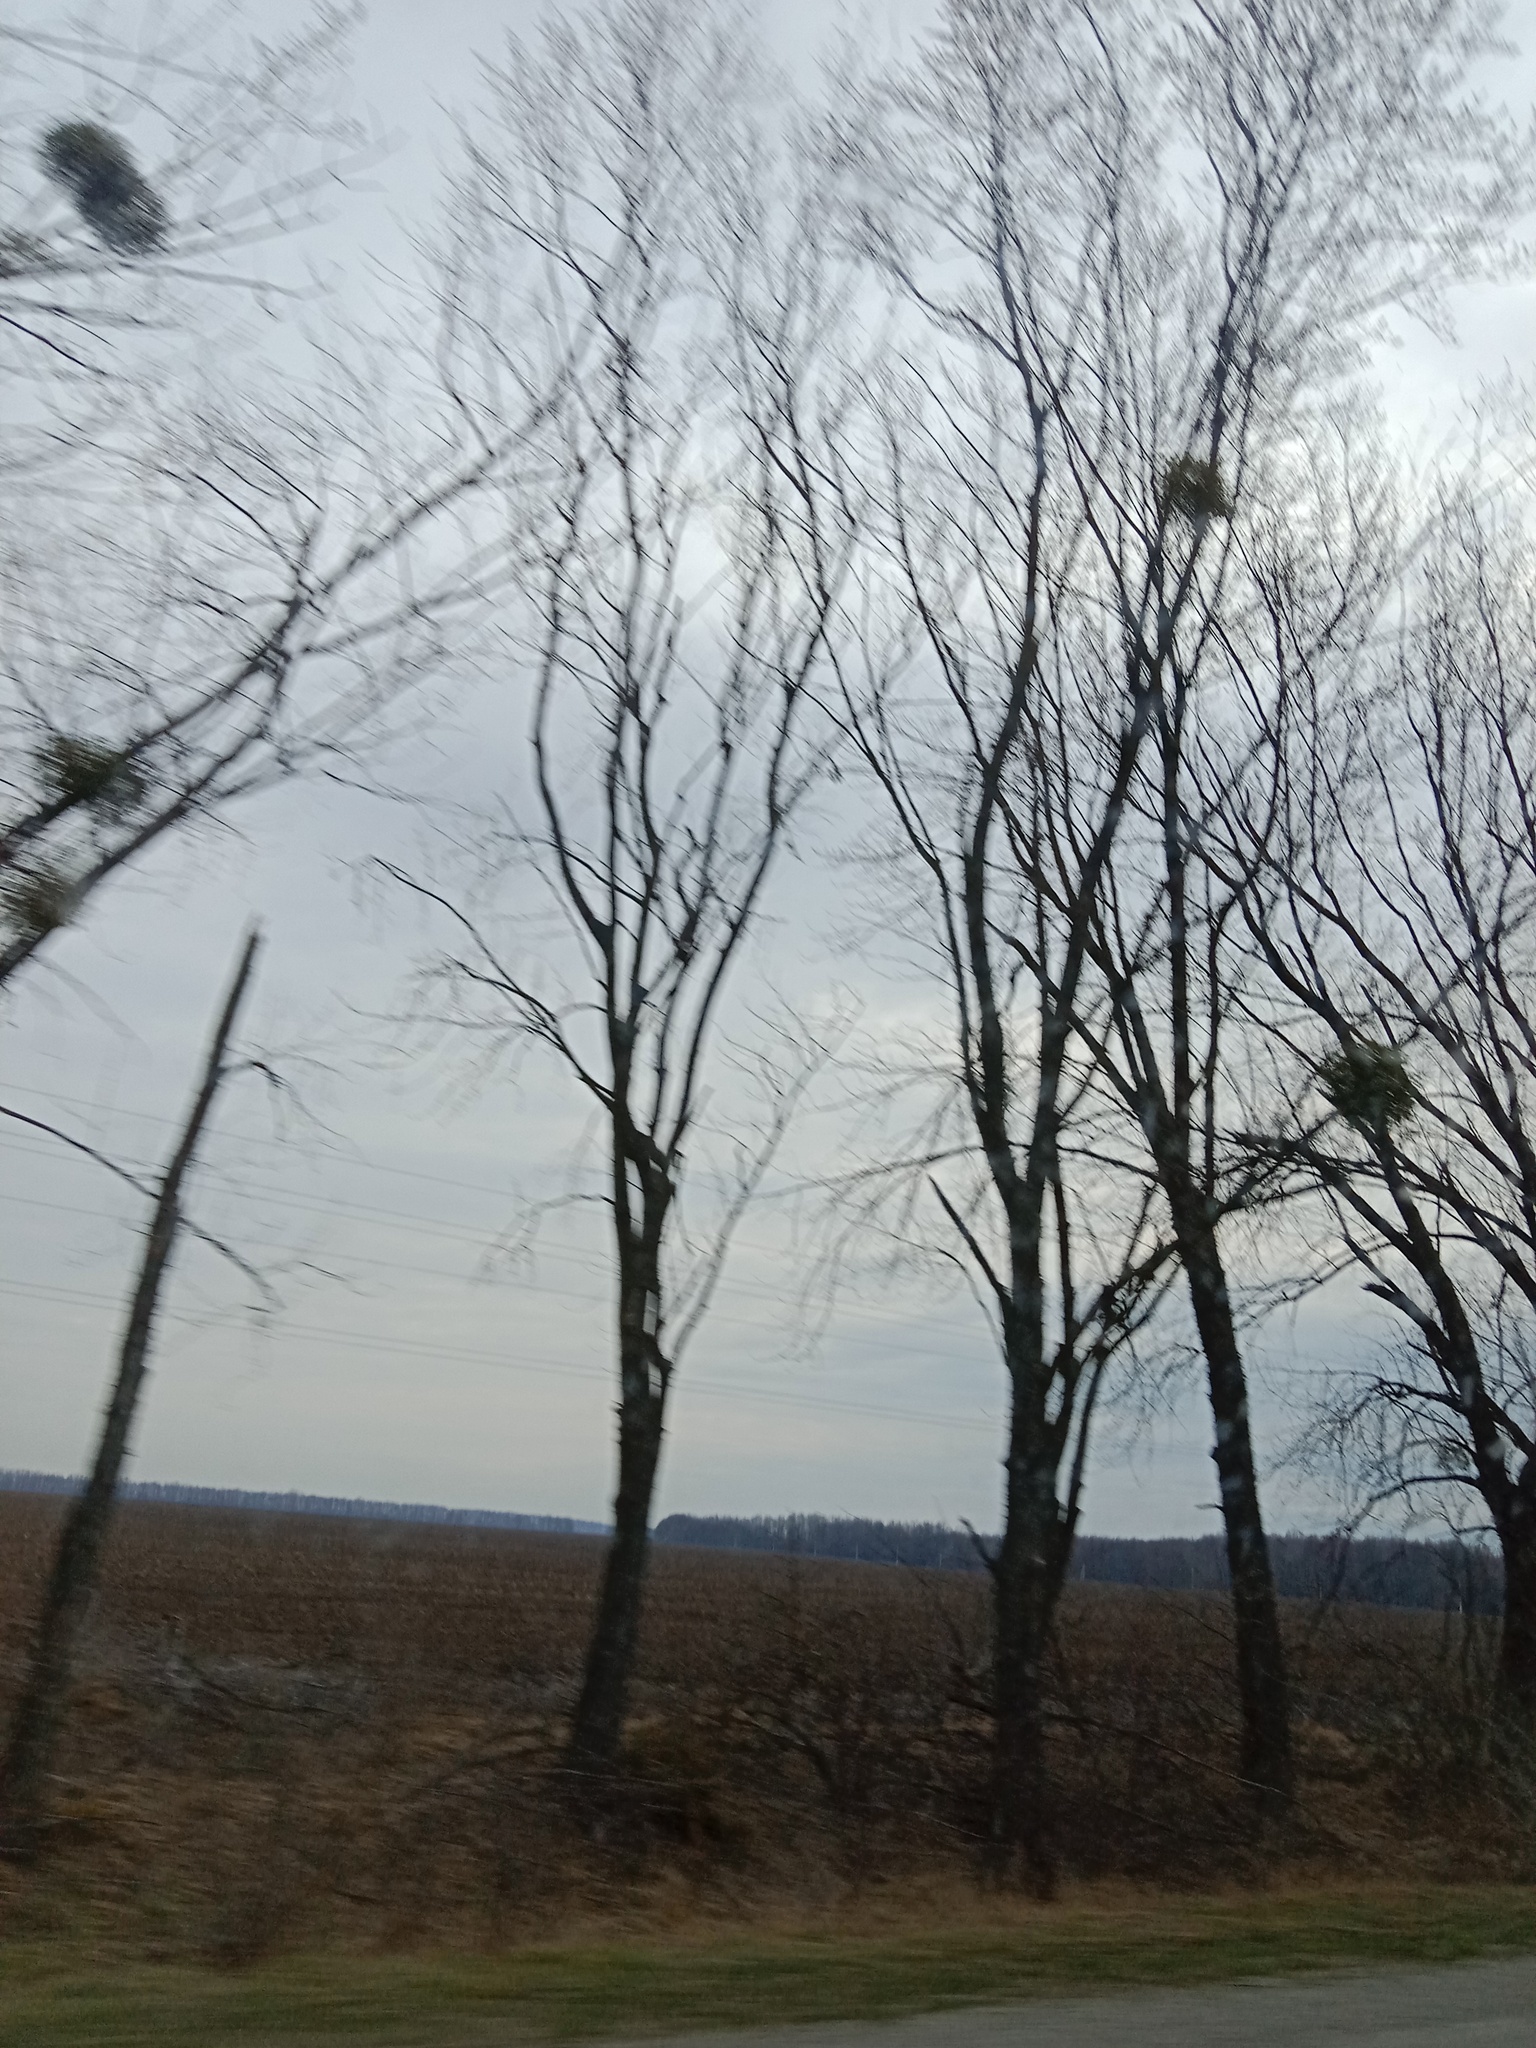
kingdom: Plantae
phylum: Tracheophyta
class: Magnoliopsida
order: Santalales
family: Viscaceae
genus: Viscum
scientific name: Viscum album
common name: Mistletoe
